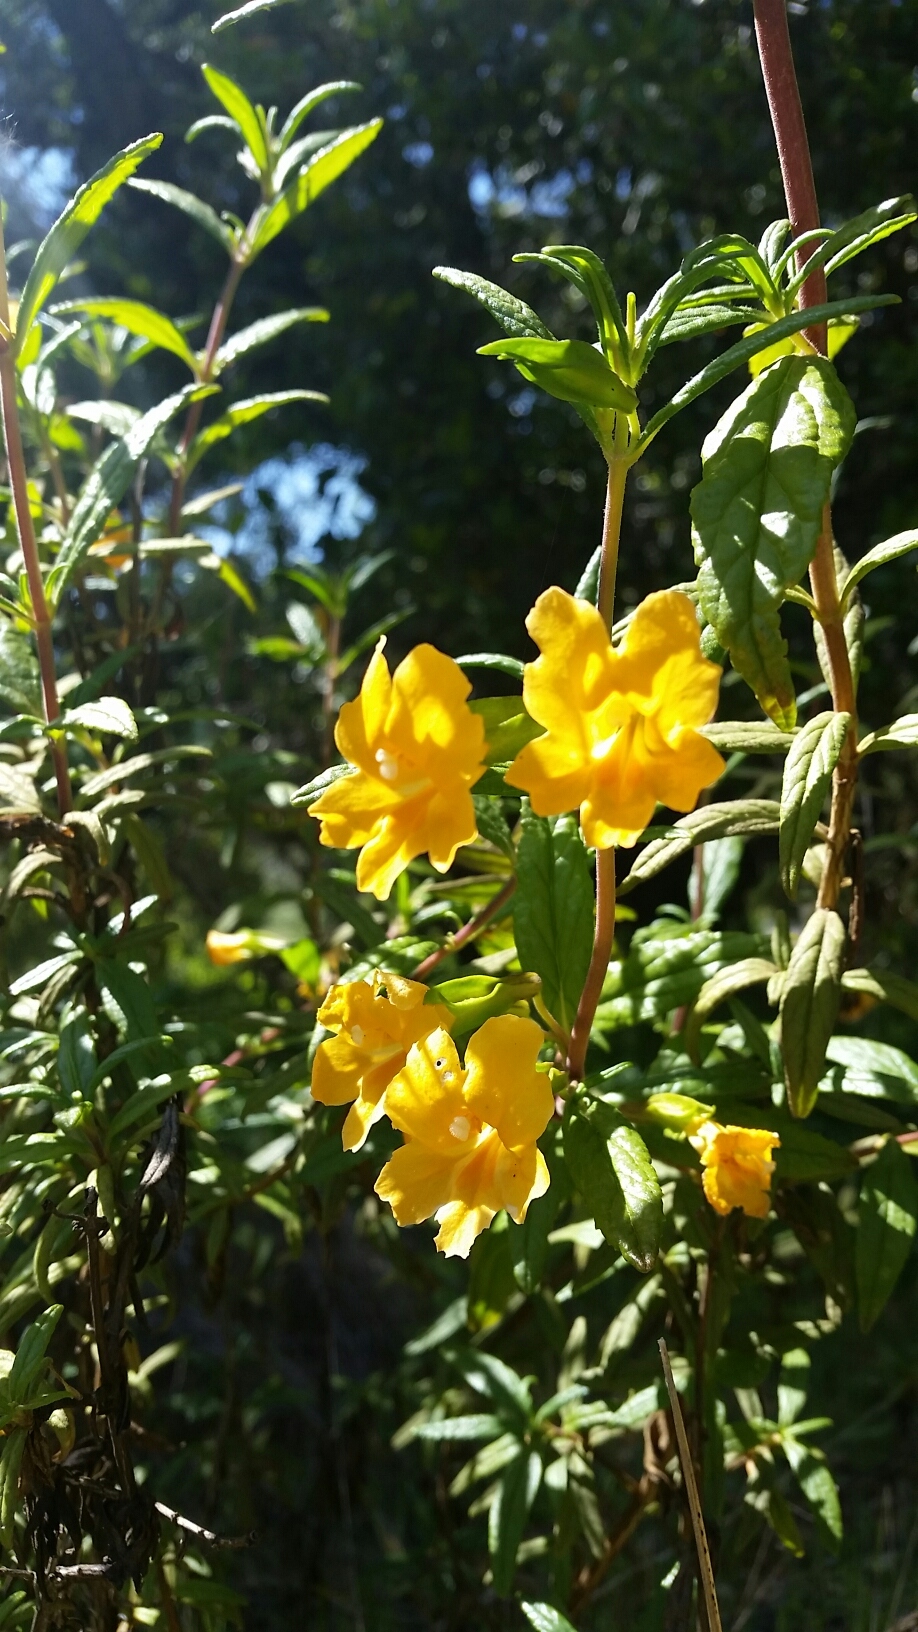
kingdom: Plantae
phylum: Tracheophyta
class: Magnoliopsida
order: Lamiales
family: Phrymaceae
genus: Diplacus
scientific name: Diplacus aurantiacus
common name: Bush monkey-flower
